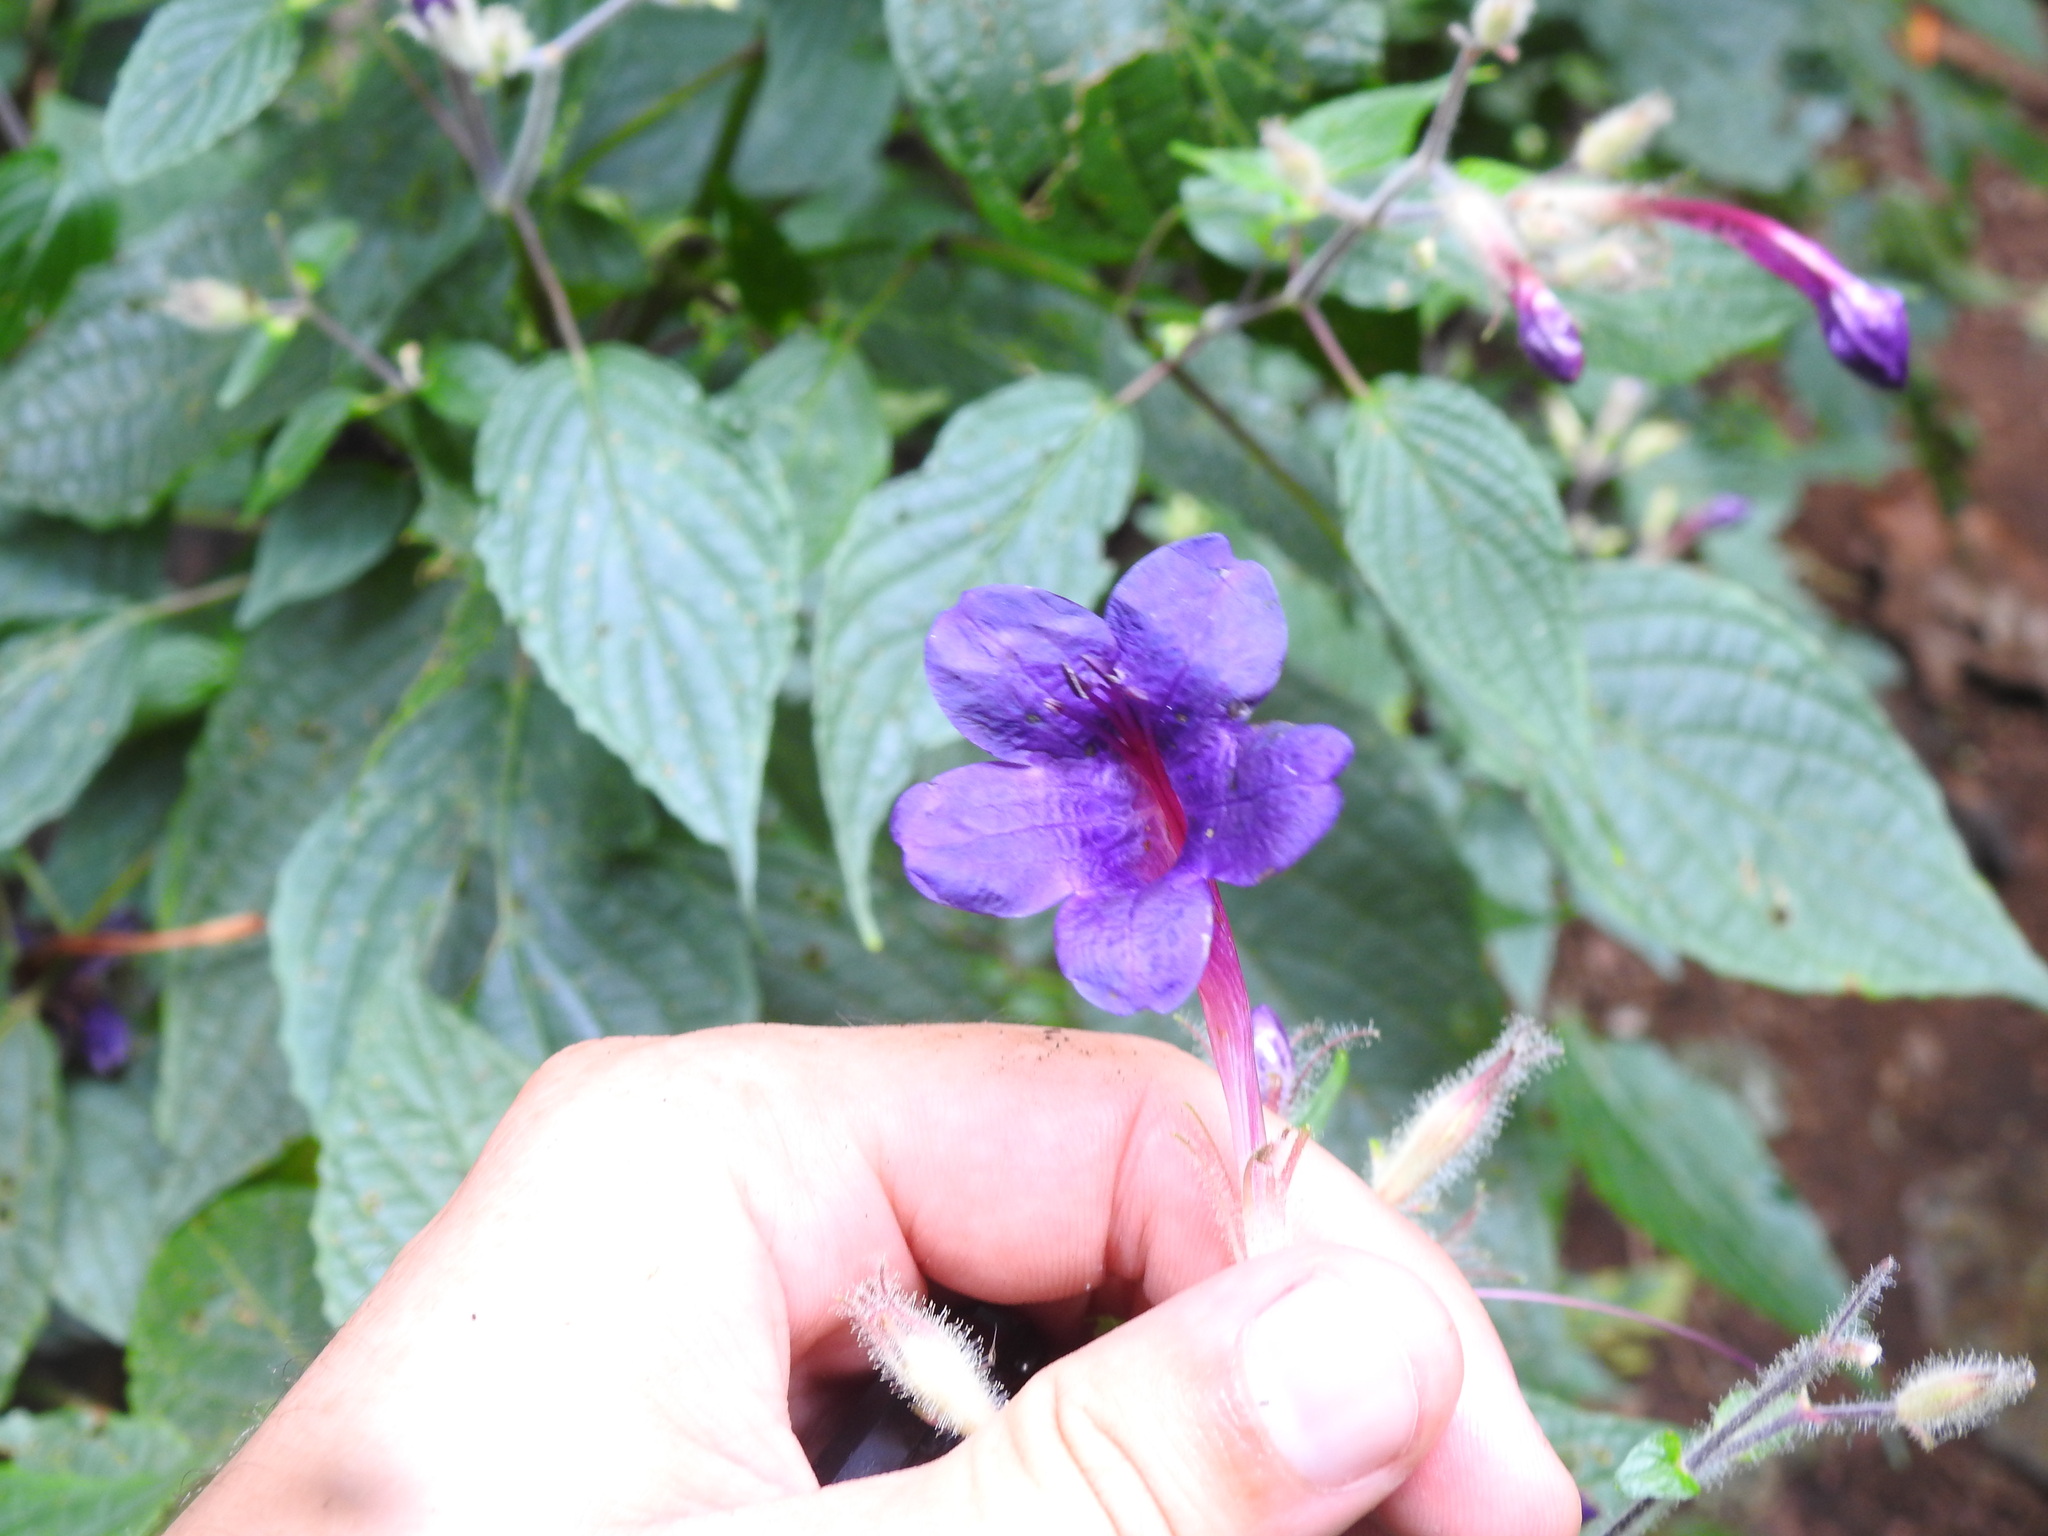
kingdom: Plantae
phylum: Tracheophyta
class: Magnoliopsida
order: Lamiales
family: Acanthaceae
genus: Heteradelphia
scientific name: Heteradelphia paulowilhelmia
